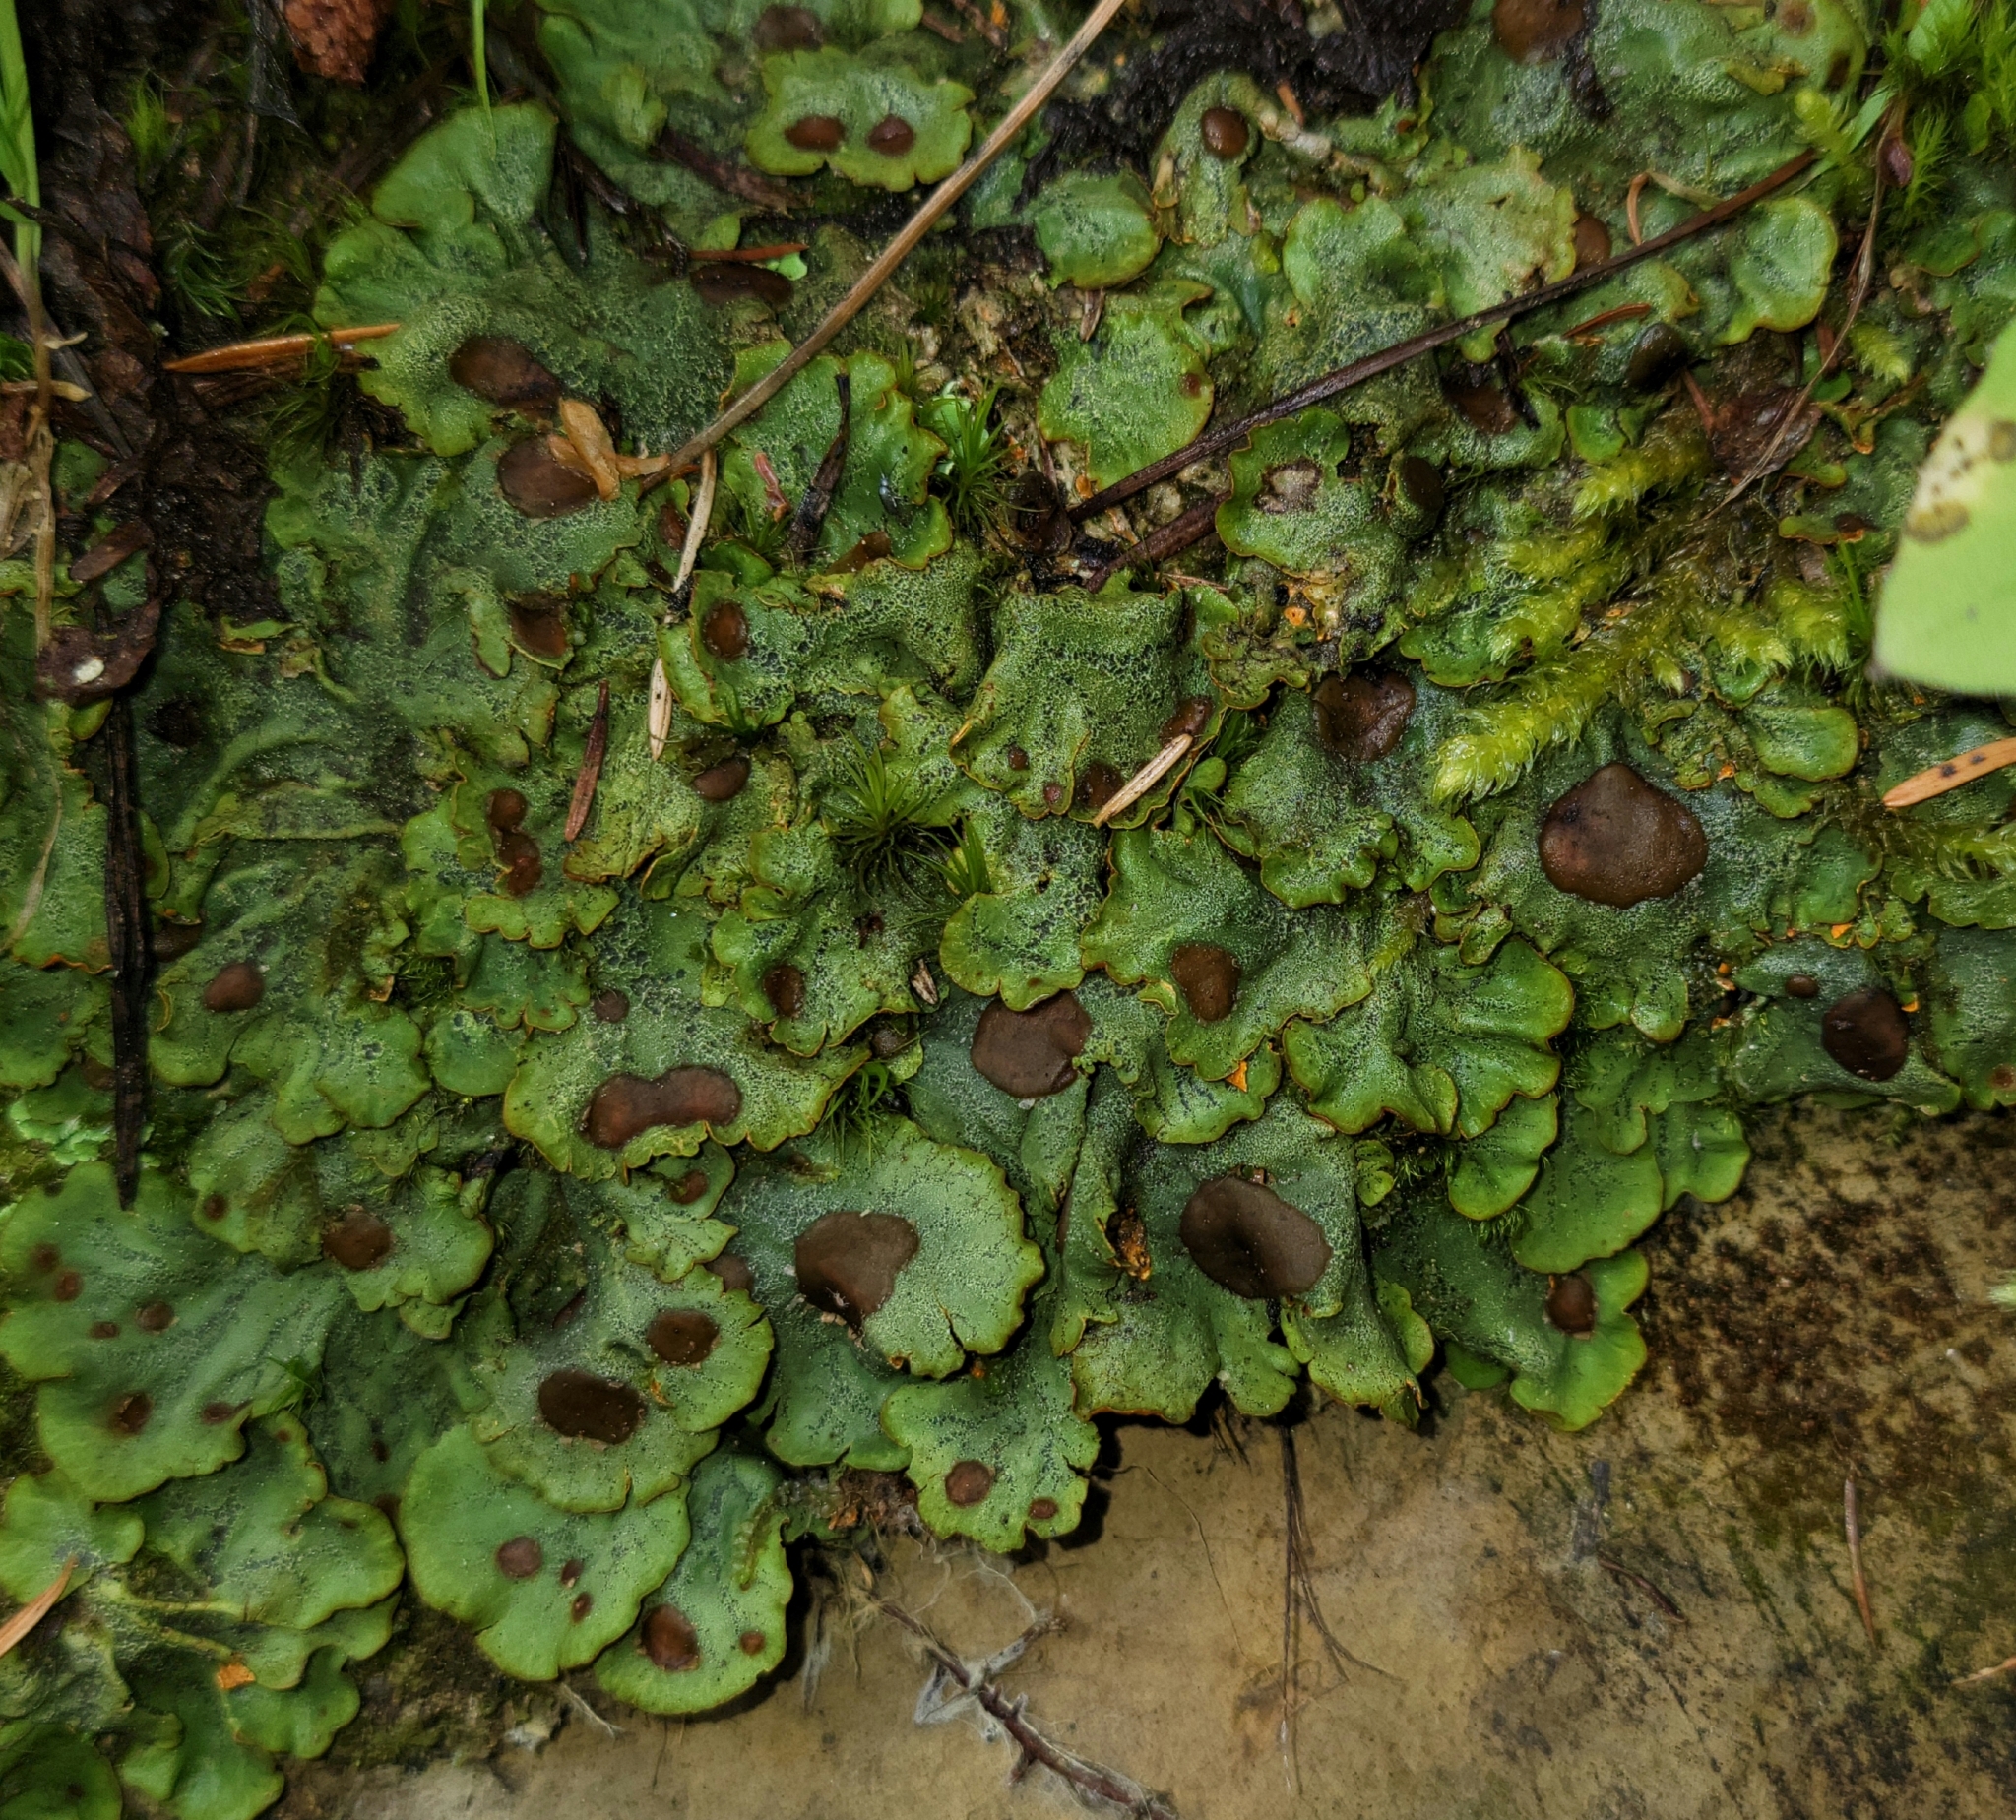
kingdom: Fungi
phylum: Ascomycota
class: Lecanoromycetes
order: Peltigerales
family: Peltigeraceae
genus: Solorina
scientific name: Solorina crocea
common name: Mountain saffron
